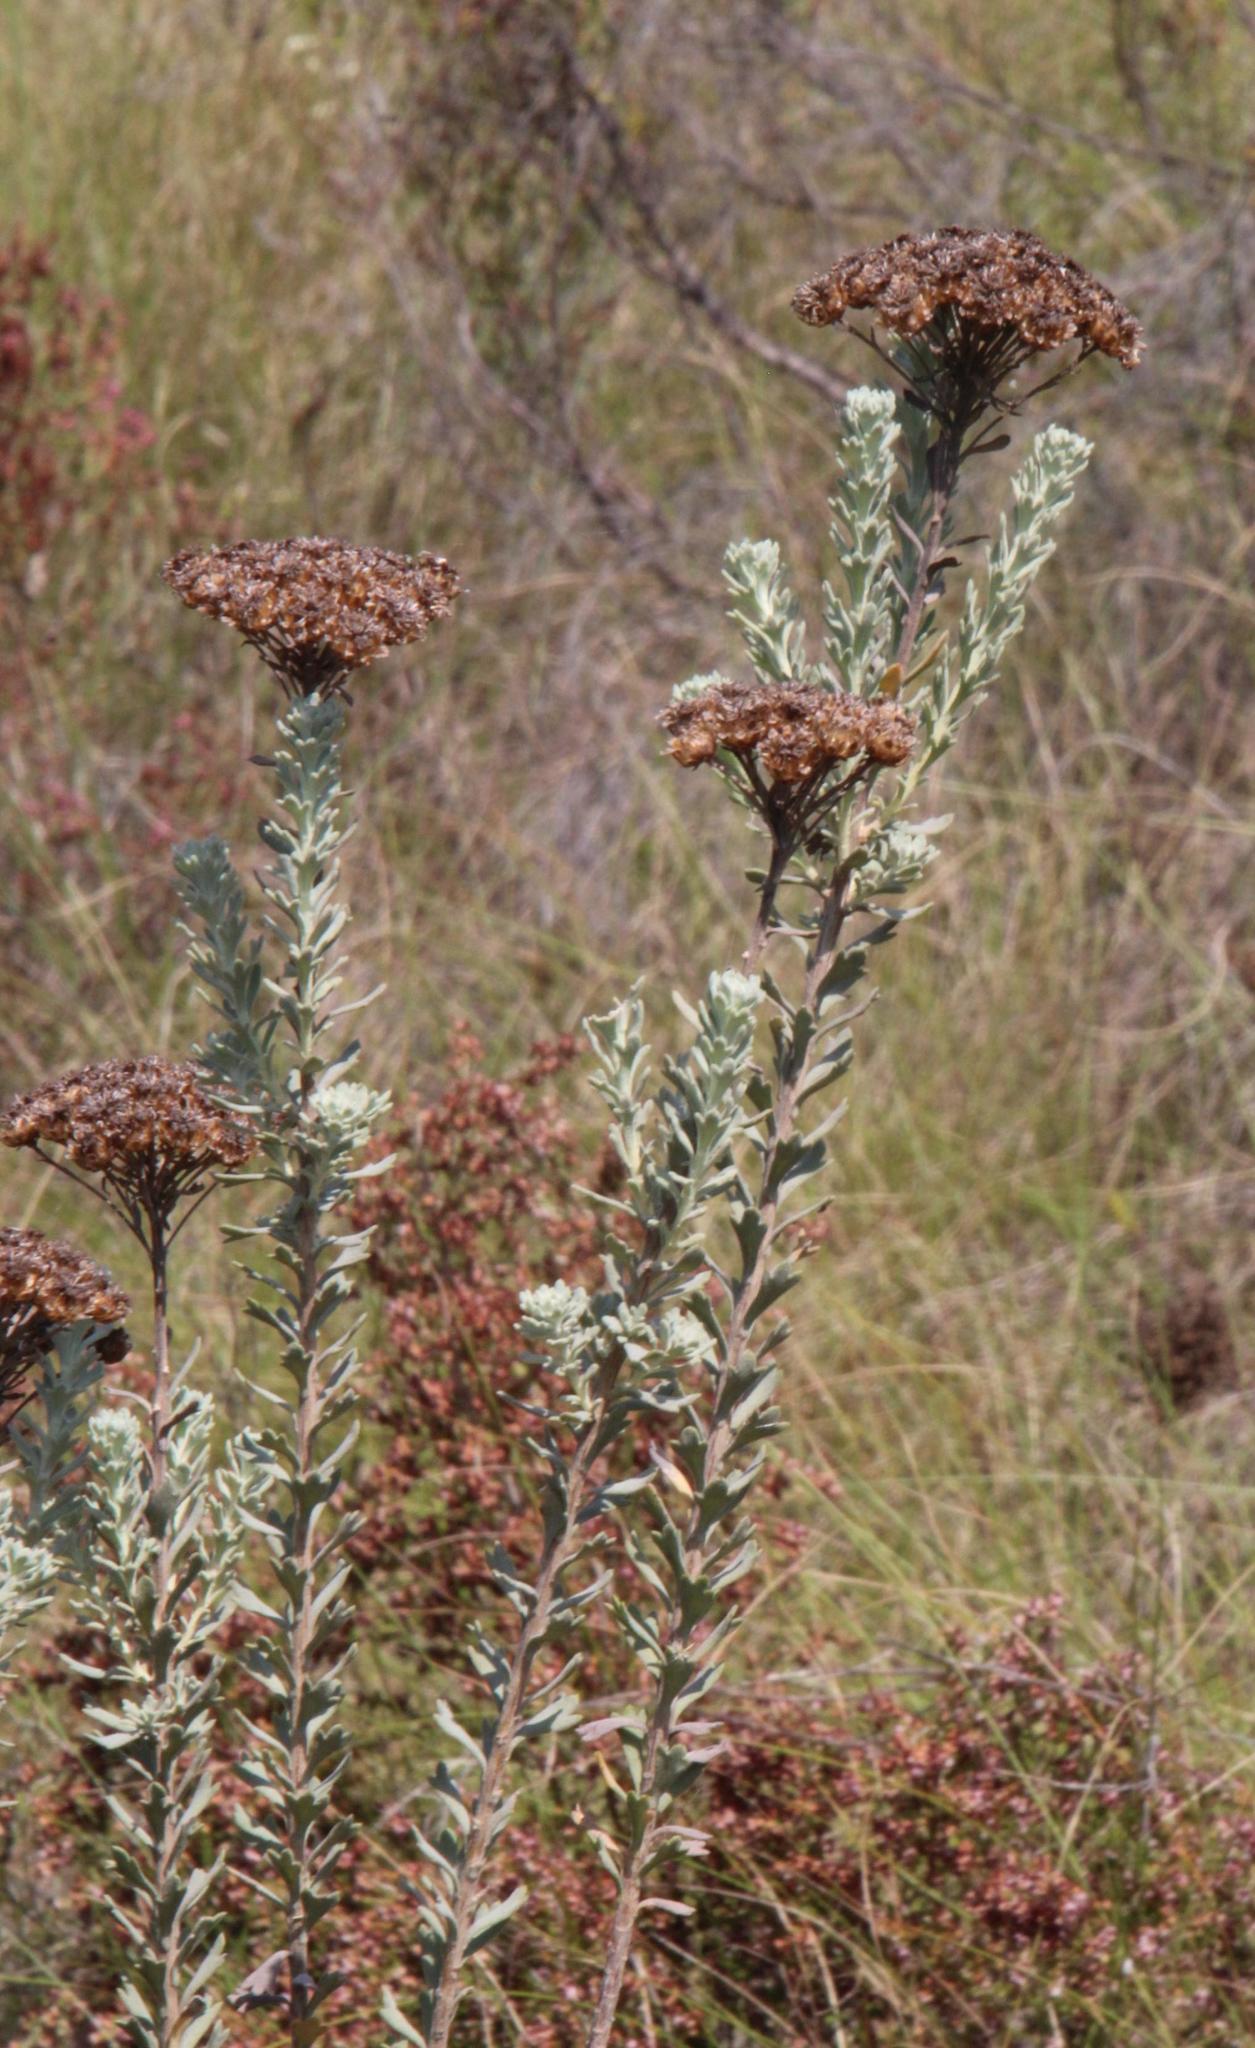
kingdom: Plantae
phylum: Tracheophyta
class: Magnoliopsida
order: Asterales
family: Asteraceae
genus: Athanasia
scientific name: Athanasia trifurcata
